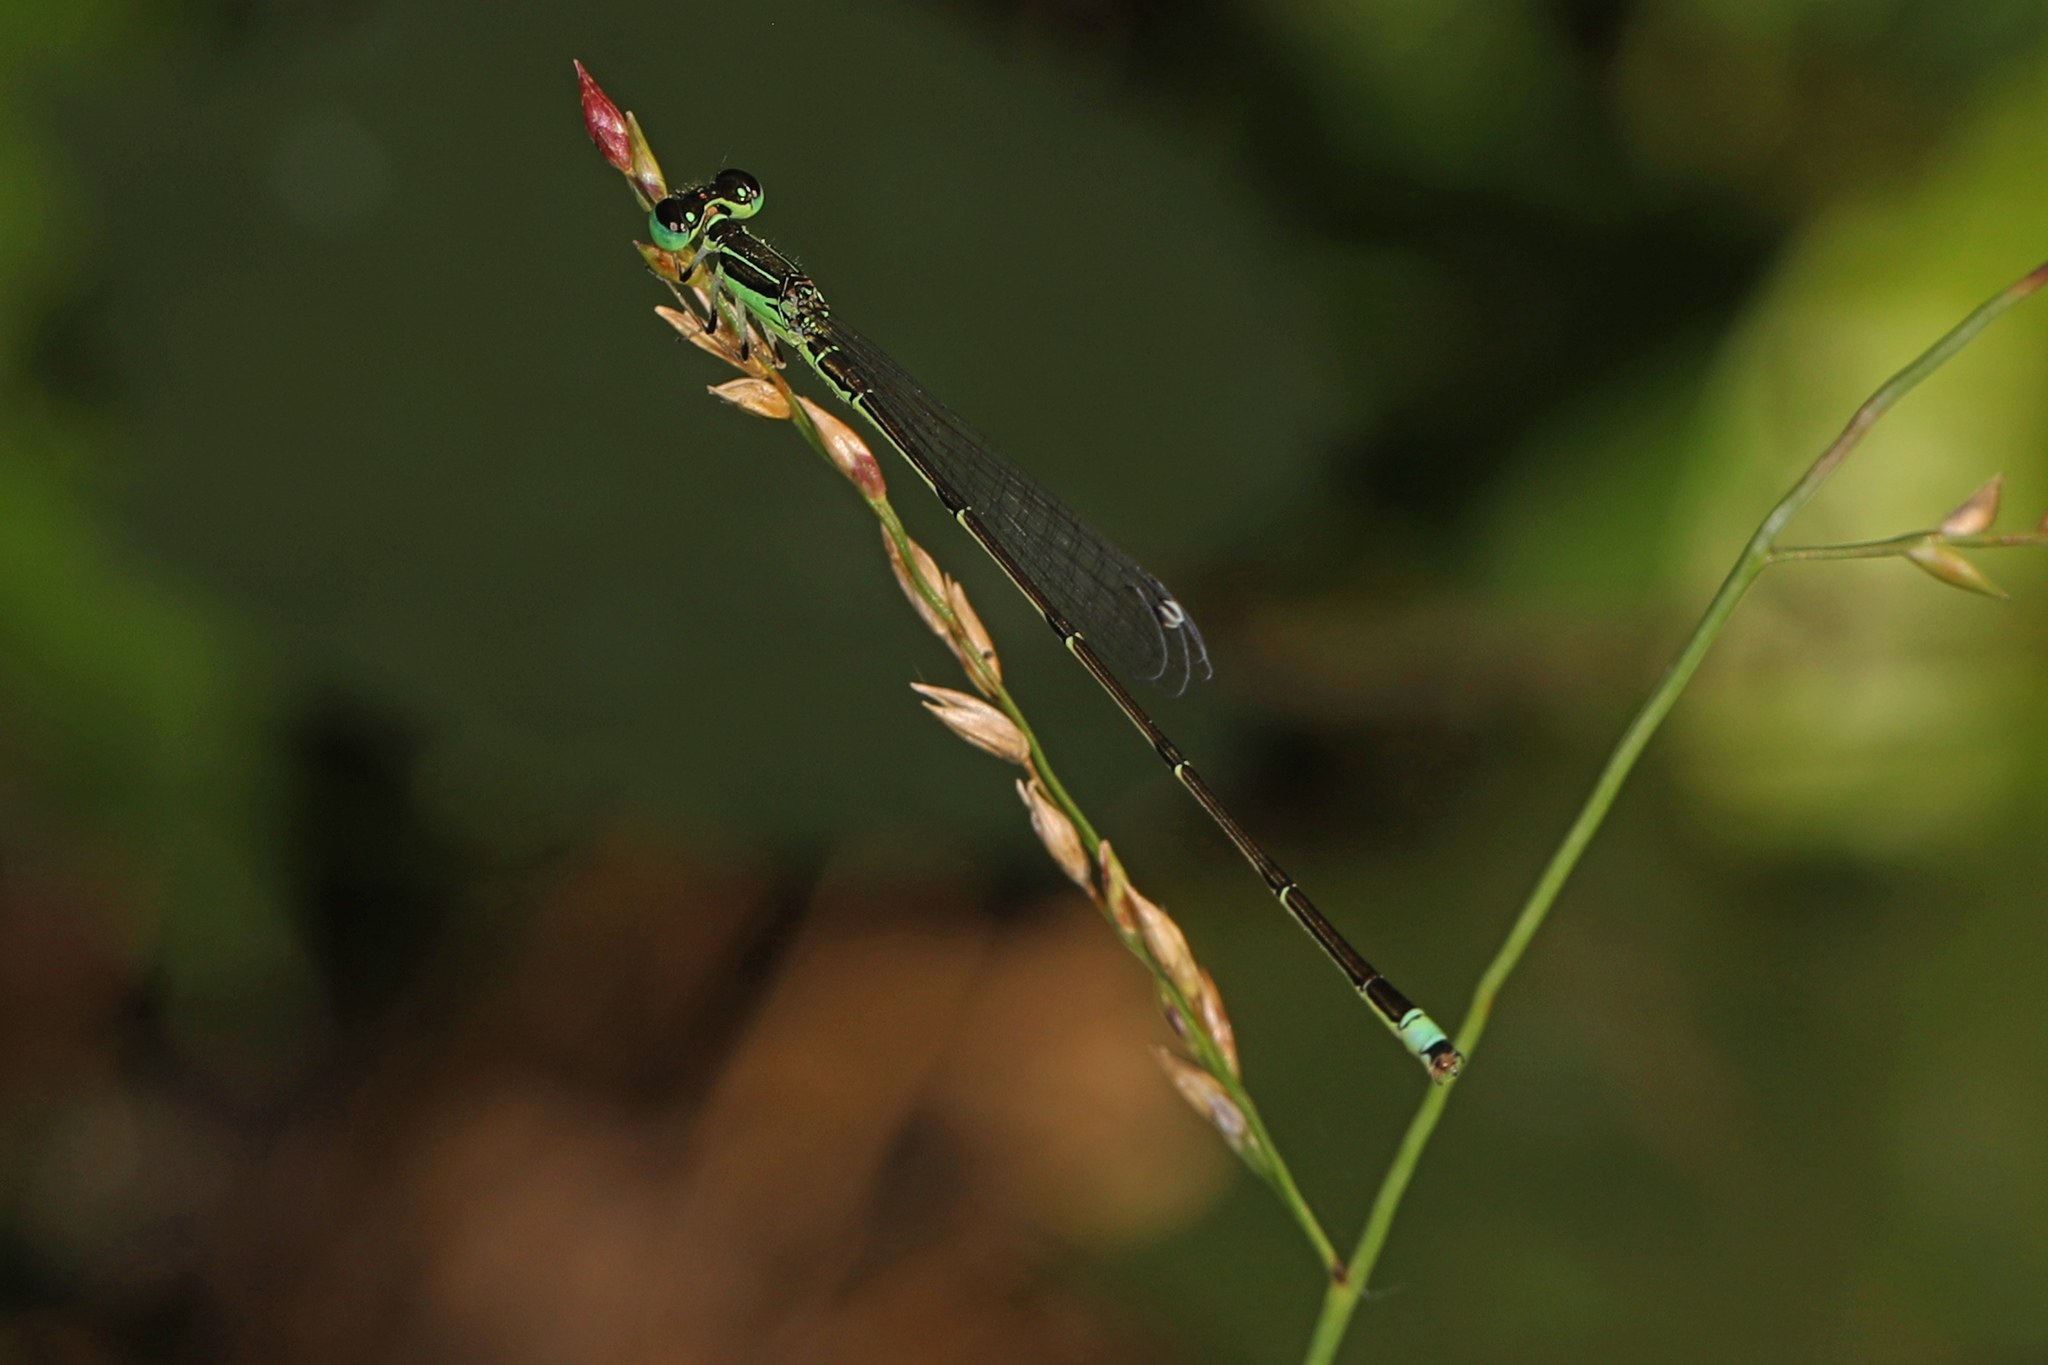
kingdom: Animalia
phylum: Arthropoda
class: Insecta
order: Odonata
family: Coenagrionidae
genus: Ischnura
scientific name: Ischnura prognata
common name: Furtive forktail
